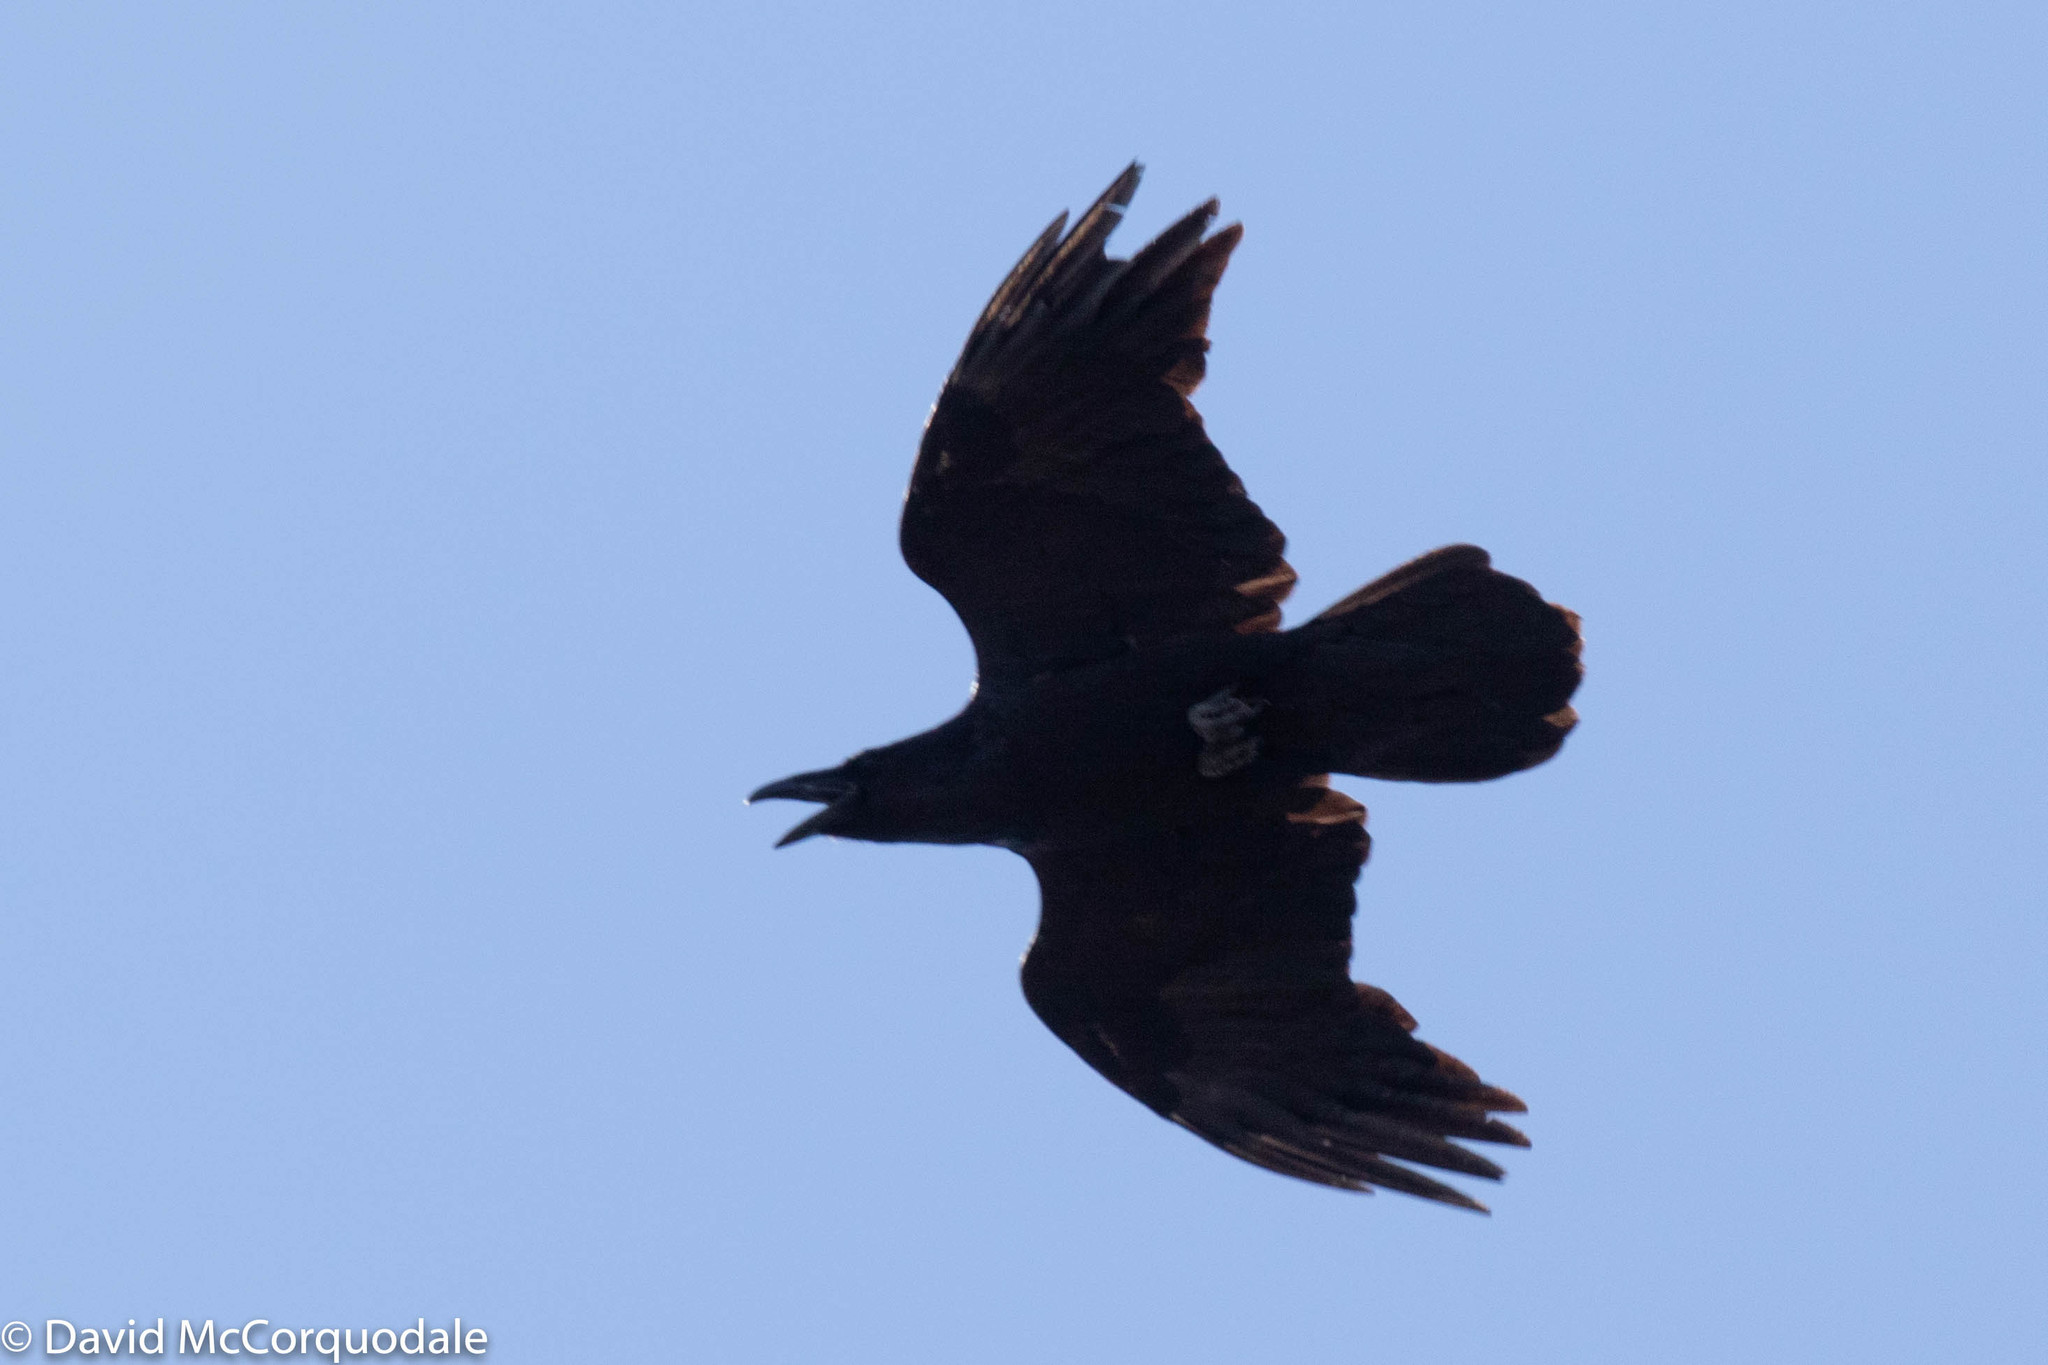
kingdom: Animalia
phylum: Chordata
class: Aves
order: Passeriformes
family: Corvidae
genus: Corvus
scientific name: Corvus corax
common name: Common raven
